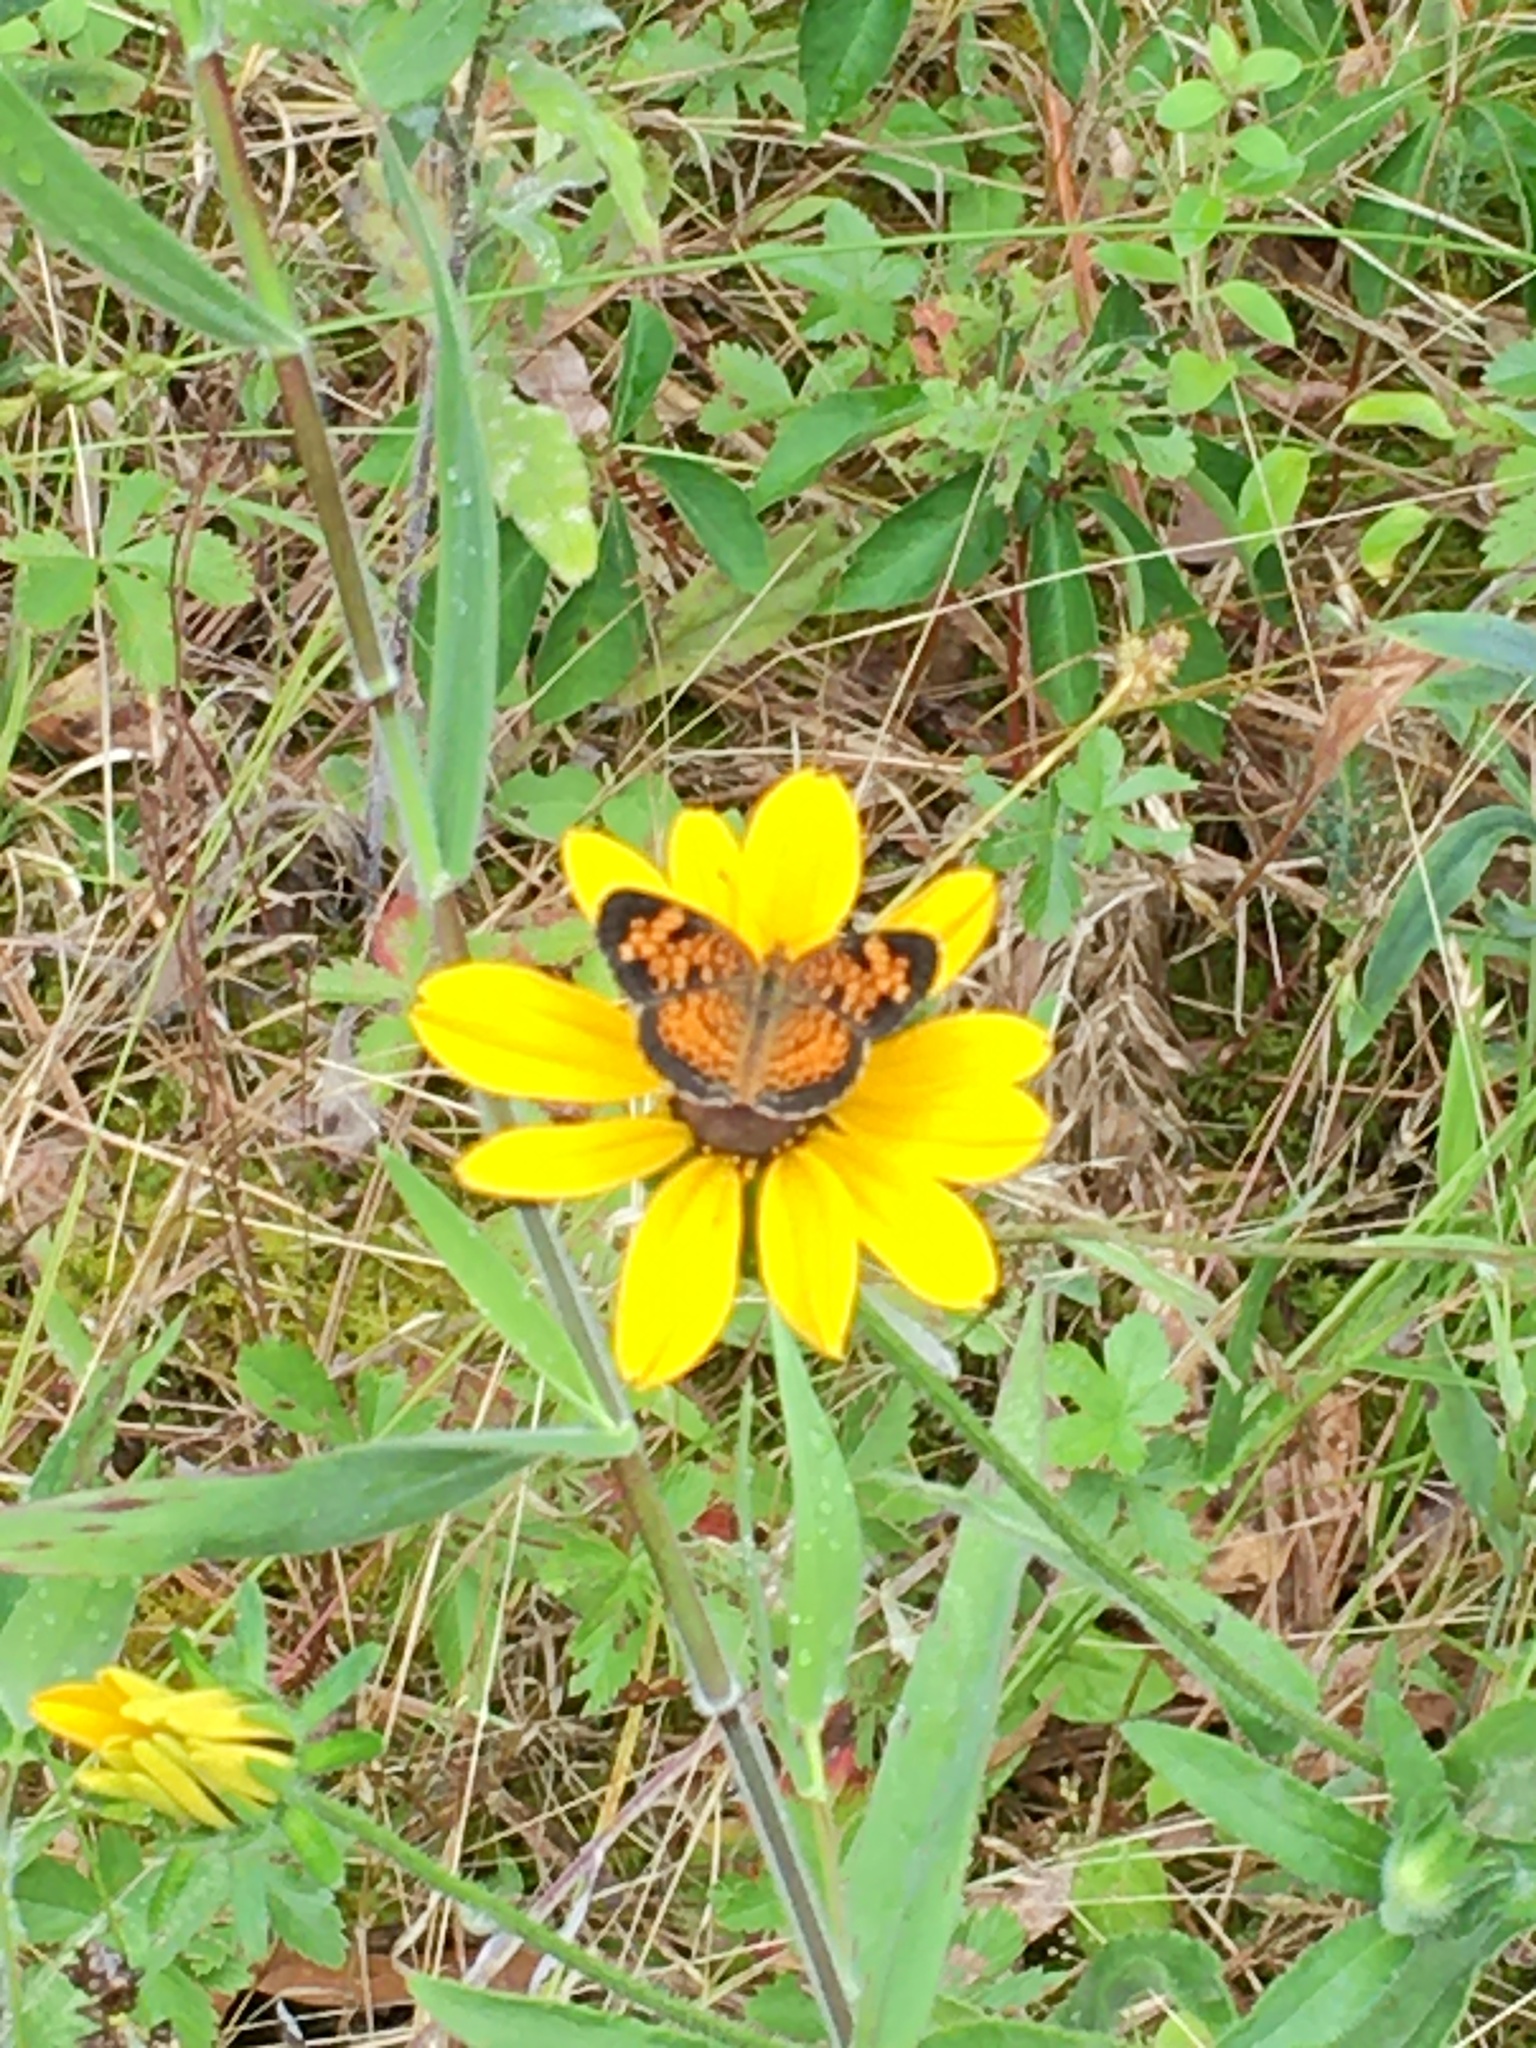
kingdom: Animalia
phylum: Arthropoda
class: Insecta
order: Lepidoptera
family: Nymphalidae
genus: Phyciodes
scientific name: Phyciodes tharos
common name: Pearl crescent
